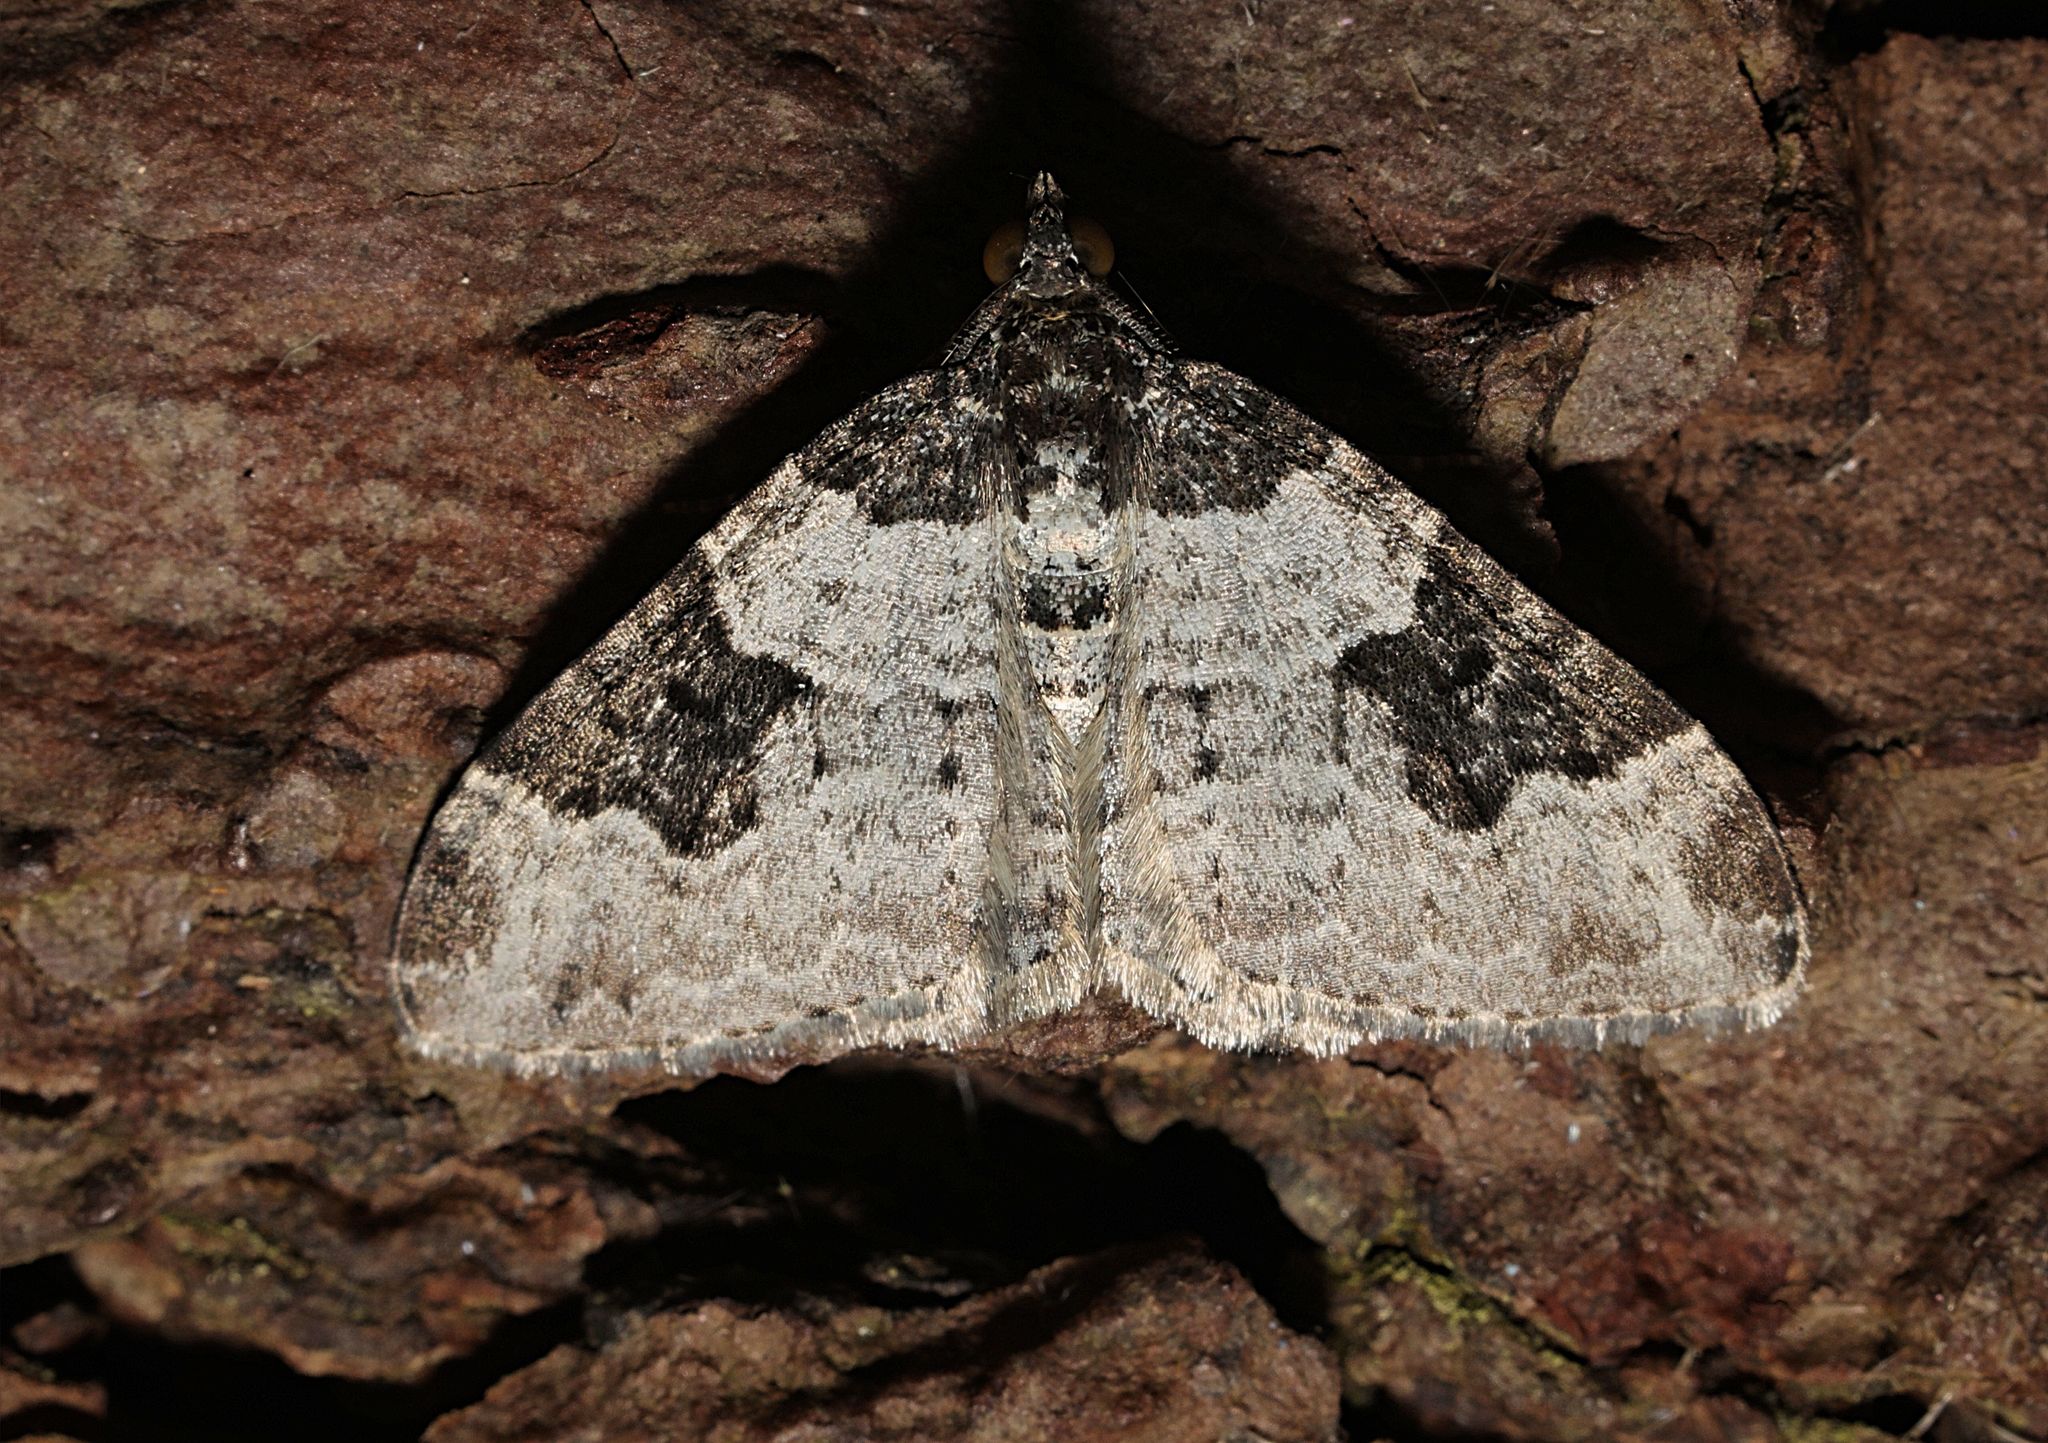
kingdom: Animalia
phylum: Arthropoda
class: Insecta
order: Lepidoptera
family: Geometridae
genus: Xanthorhoe
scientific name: Xanthorhoe fluctuata
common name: Garden carpet
